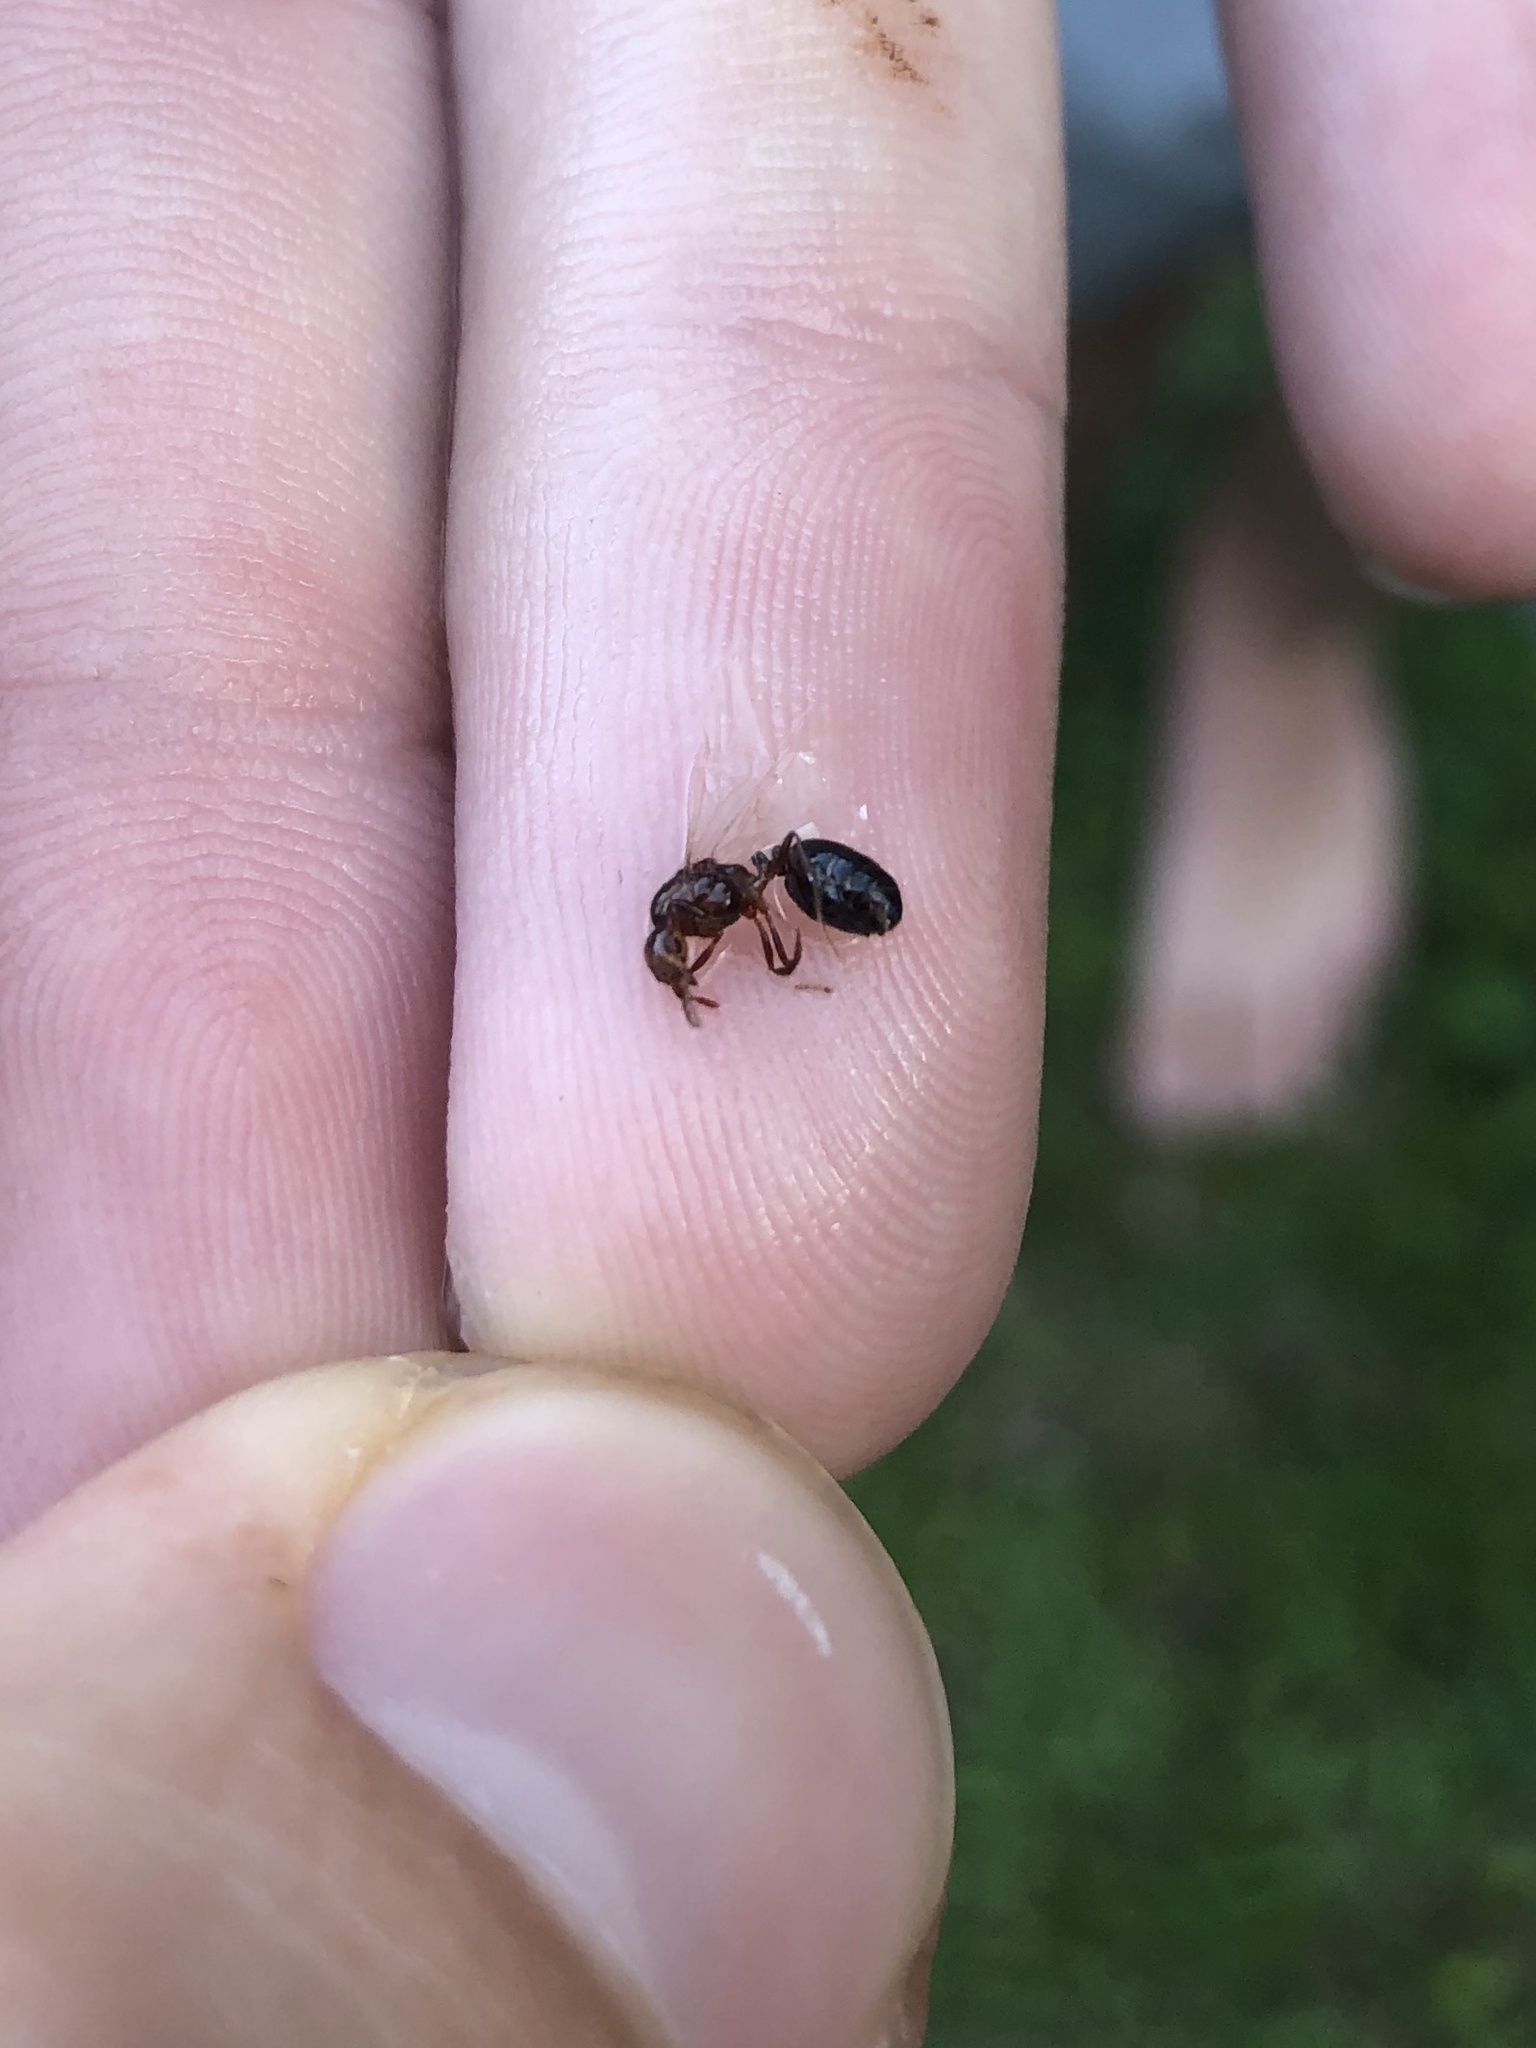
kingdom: Animalia
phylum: Arthropoda
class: Insecta
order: Hymenoptera
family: Formicidae
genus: Solenopsis
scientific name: Solenopsis invicta
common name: Red imported fire ant
